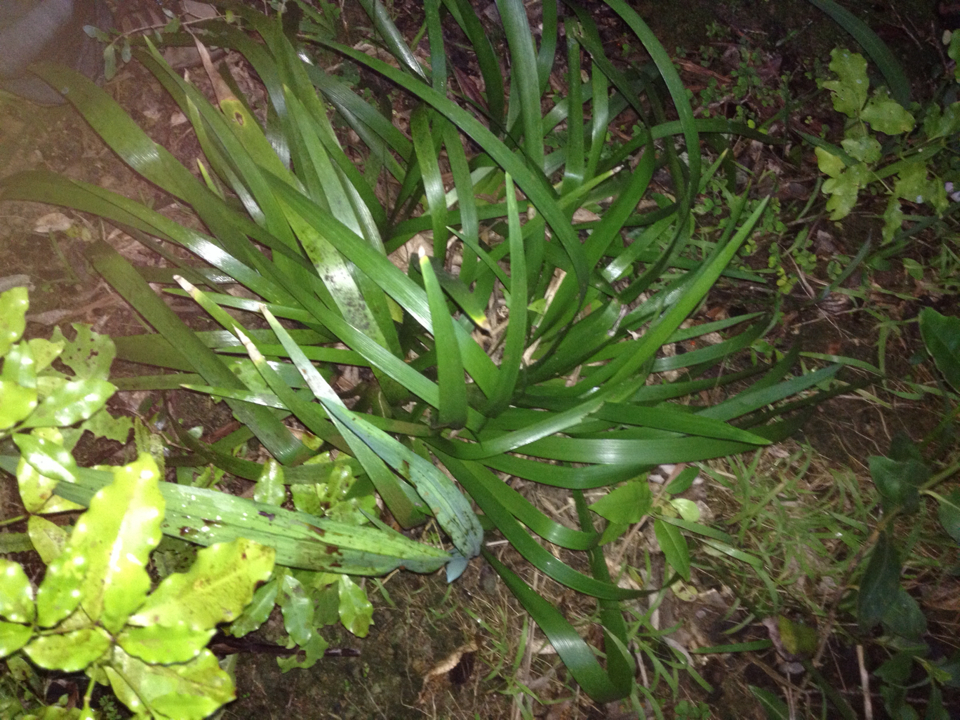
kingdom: Plantae
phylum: Tracheophyta
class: Liliopsida
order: Asparagales
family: Iridaceae
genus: Iris
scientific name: Iris foetidissima
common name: Stinking iris
